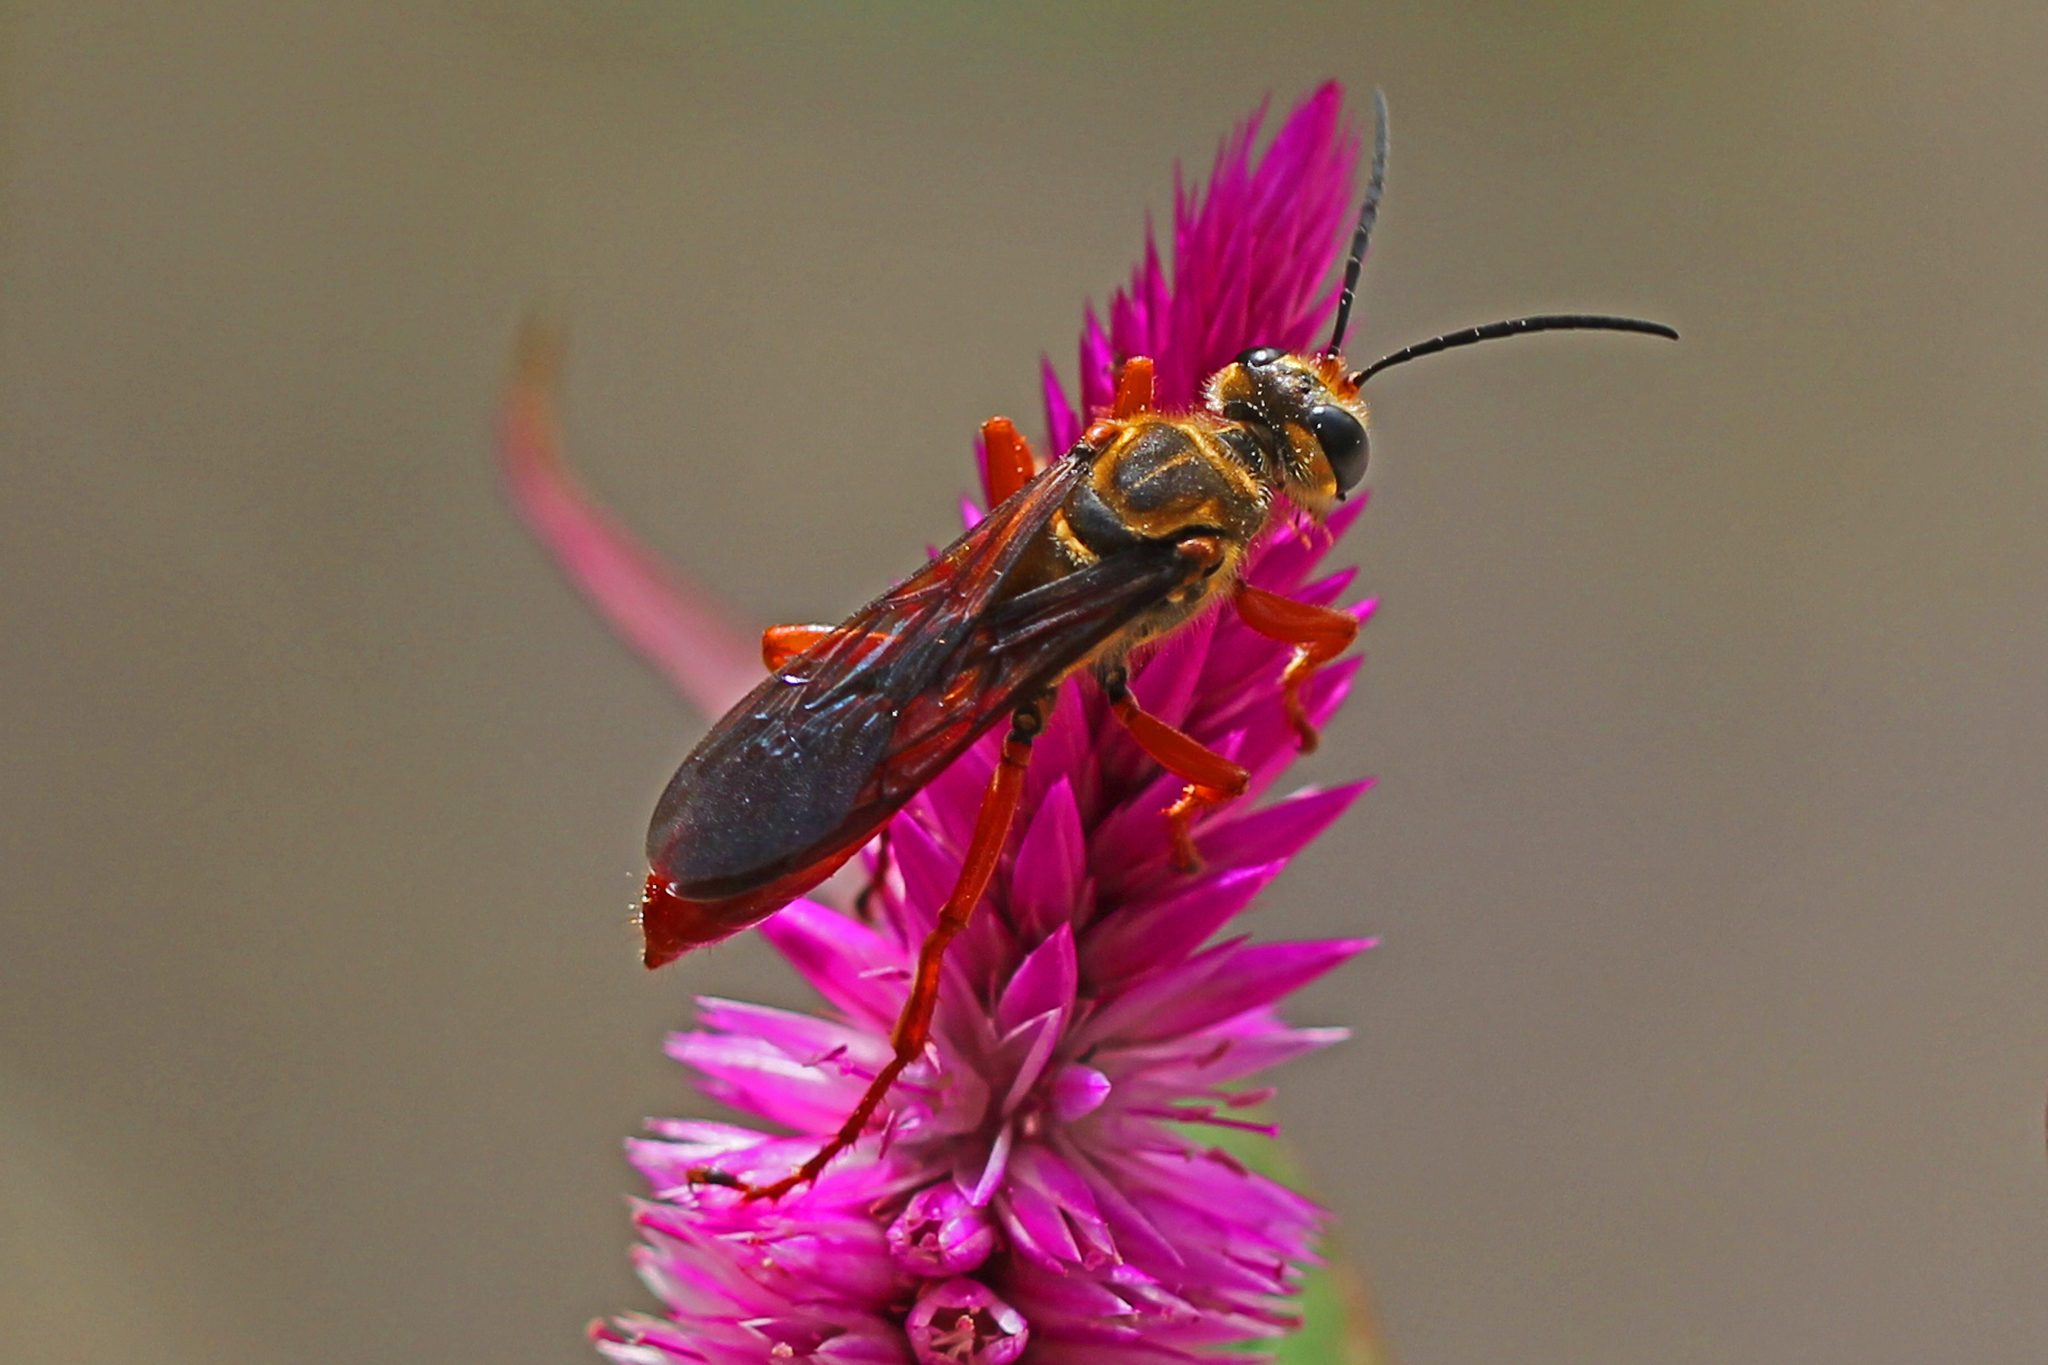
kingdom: Animalia
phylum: Arthropoda
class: Insecta
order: Hymenoptera
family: Sphecidae
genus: Sphex
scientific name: Sphex jamaicensis
